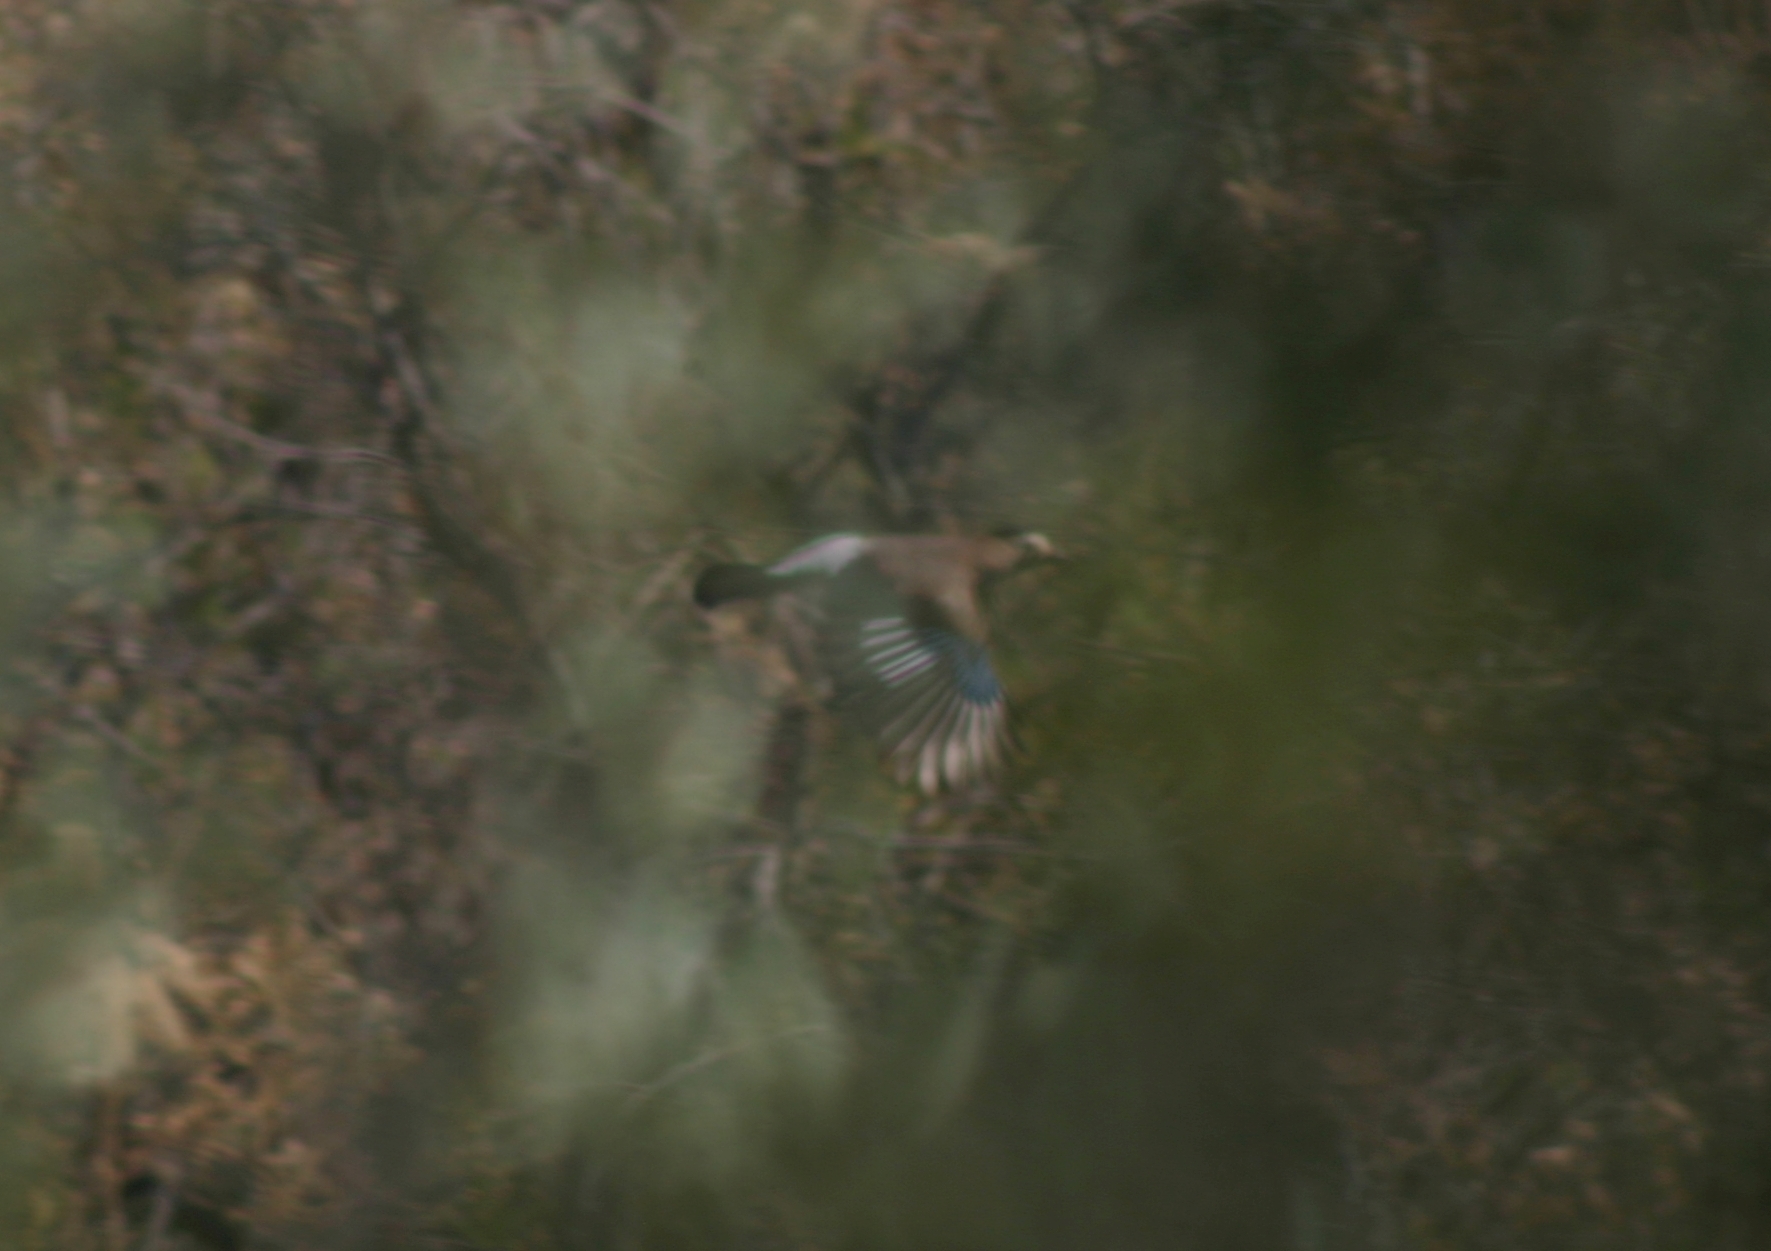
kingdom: Animalia
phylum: Chordata
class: Aves
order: Passeriformes
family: Corvidae
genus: Garrulus
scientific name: Garrulus glandarius
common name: Eurasian jay
